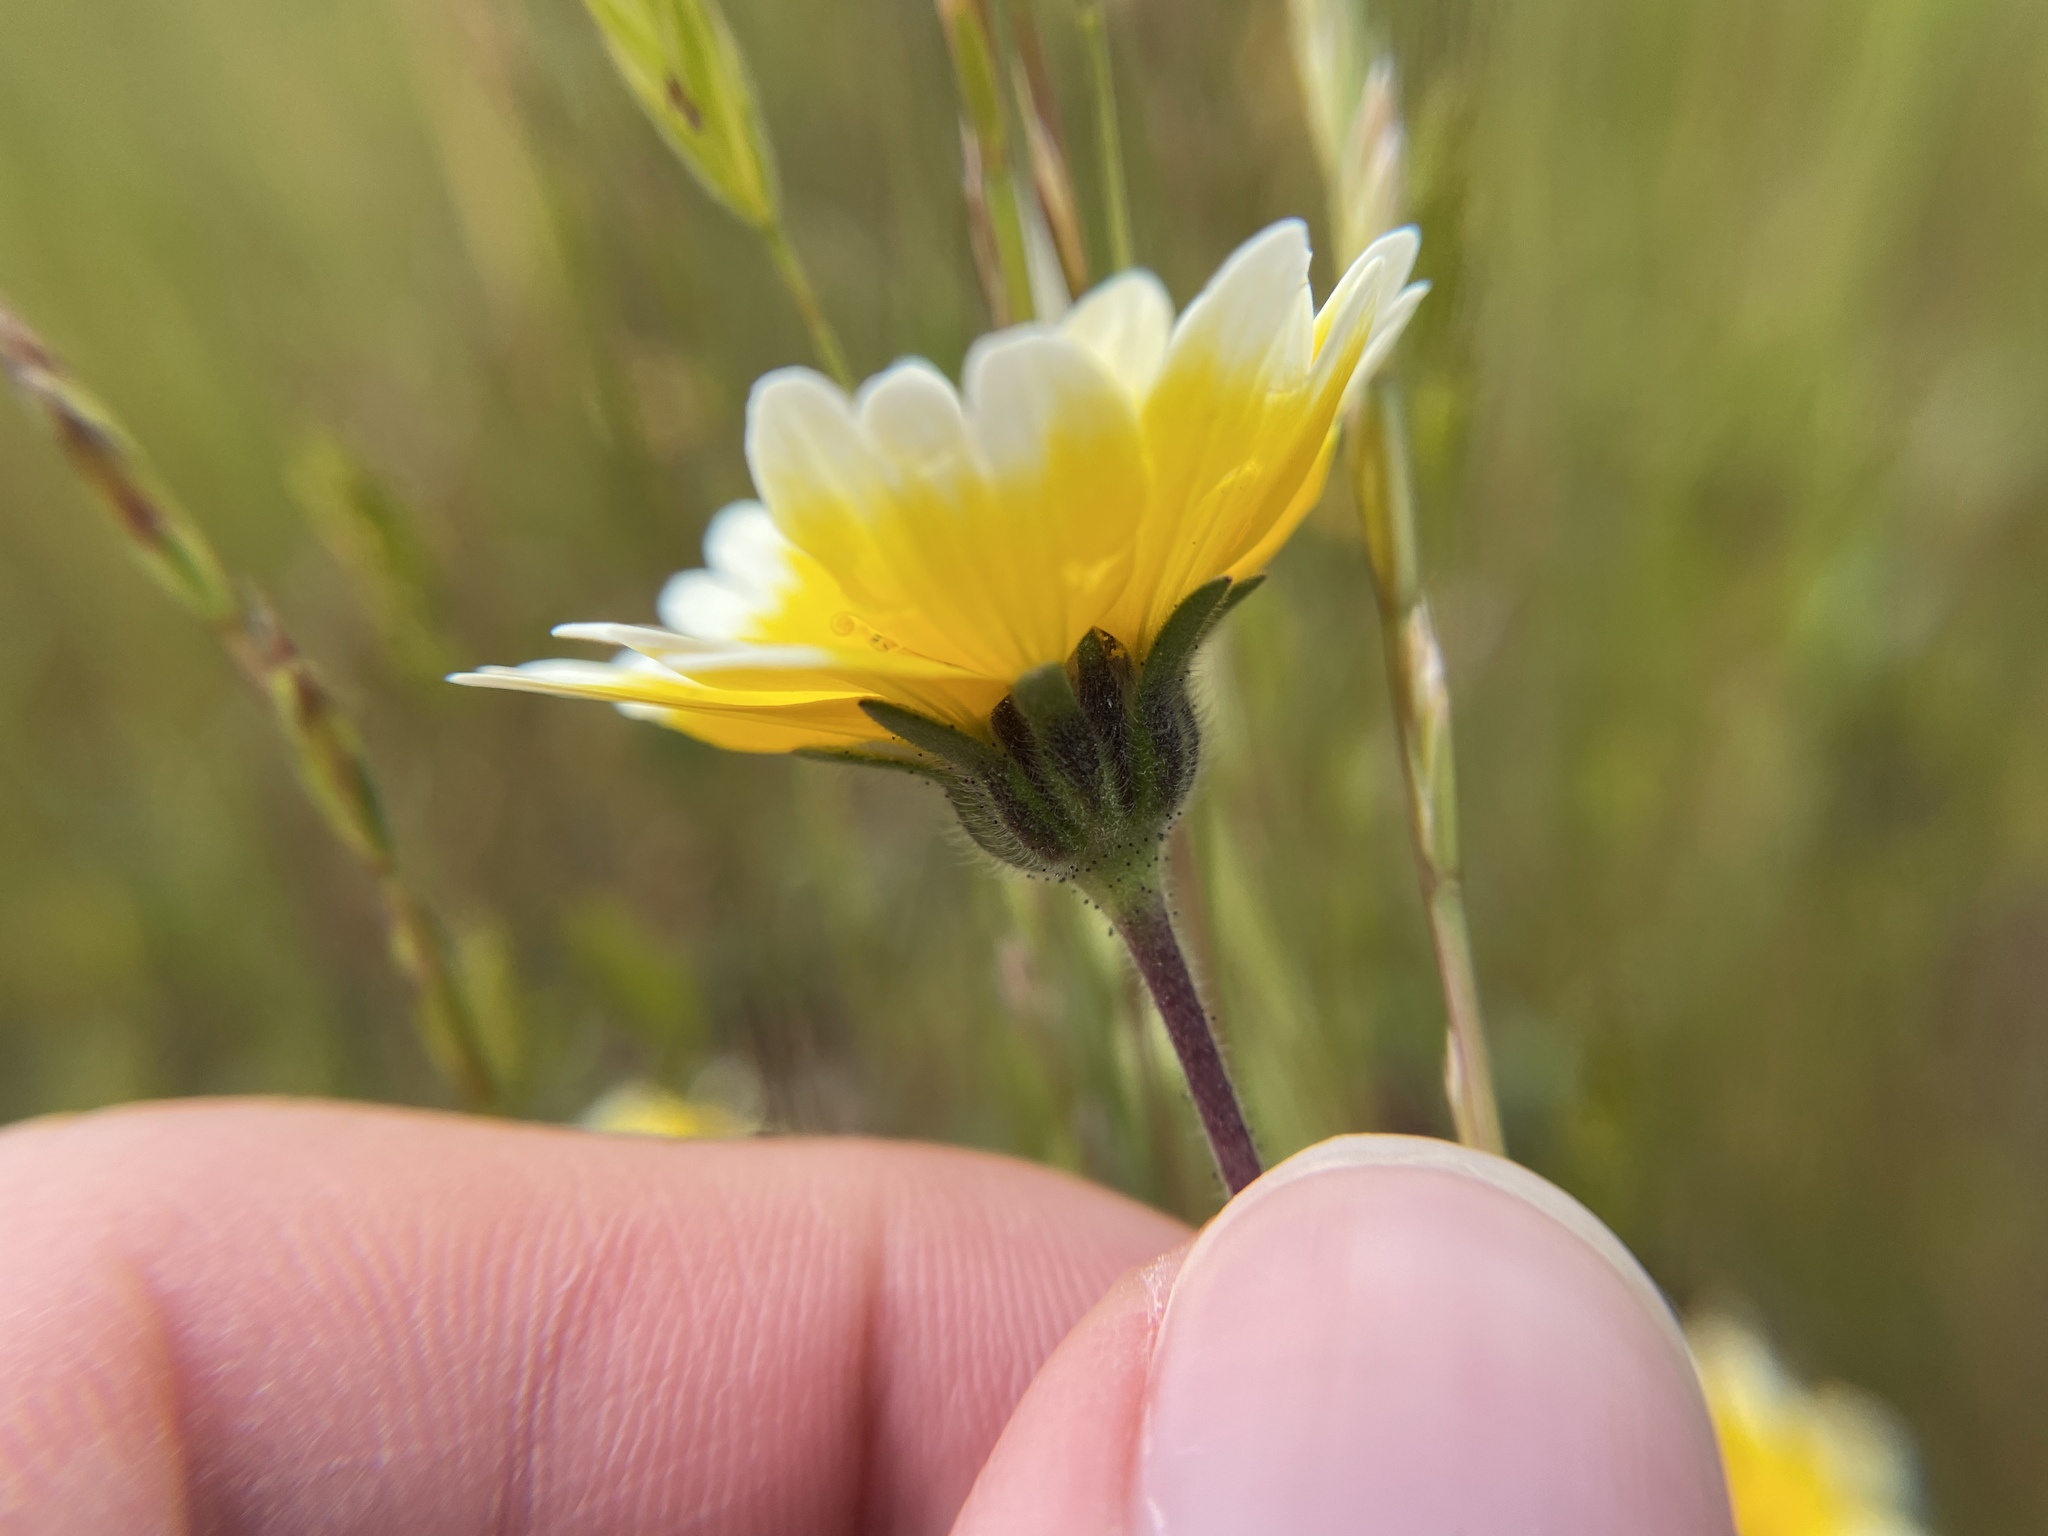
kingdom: Plantae
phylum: Tracheophyta
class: Magnoliopsida
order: Asterales
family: Asteraceae
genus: Layia
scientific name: Layia platyglossa
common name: Tidy-tips
